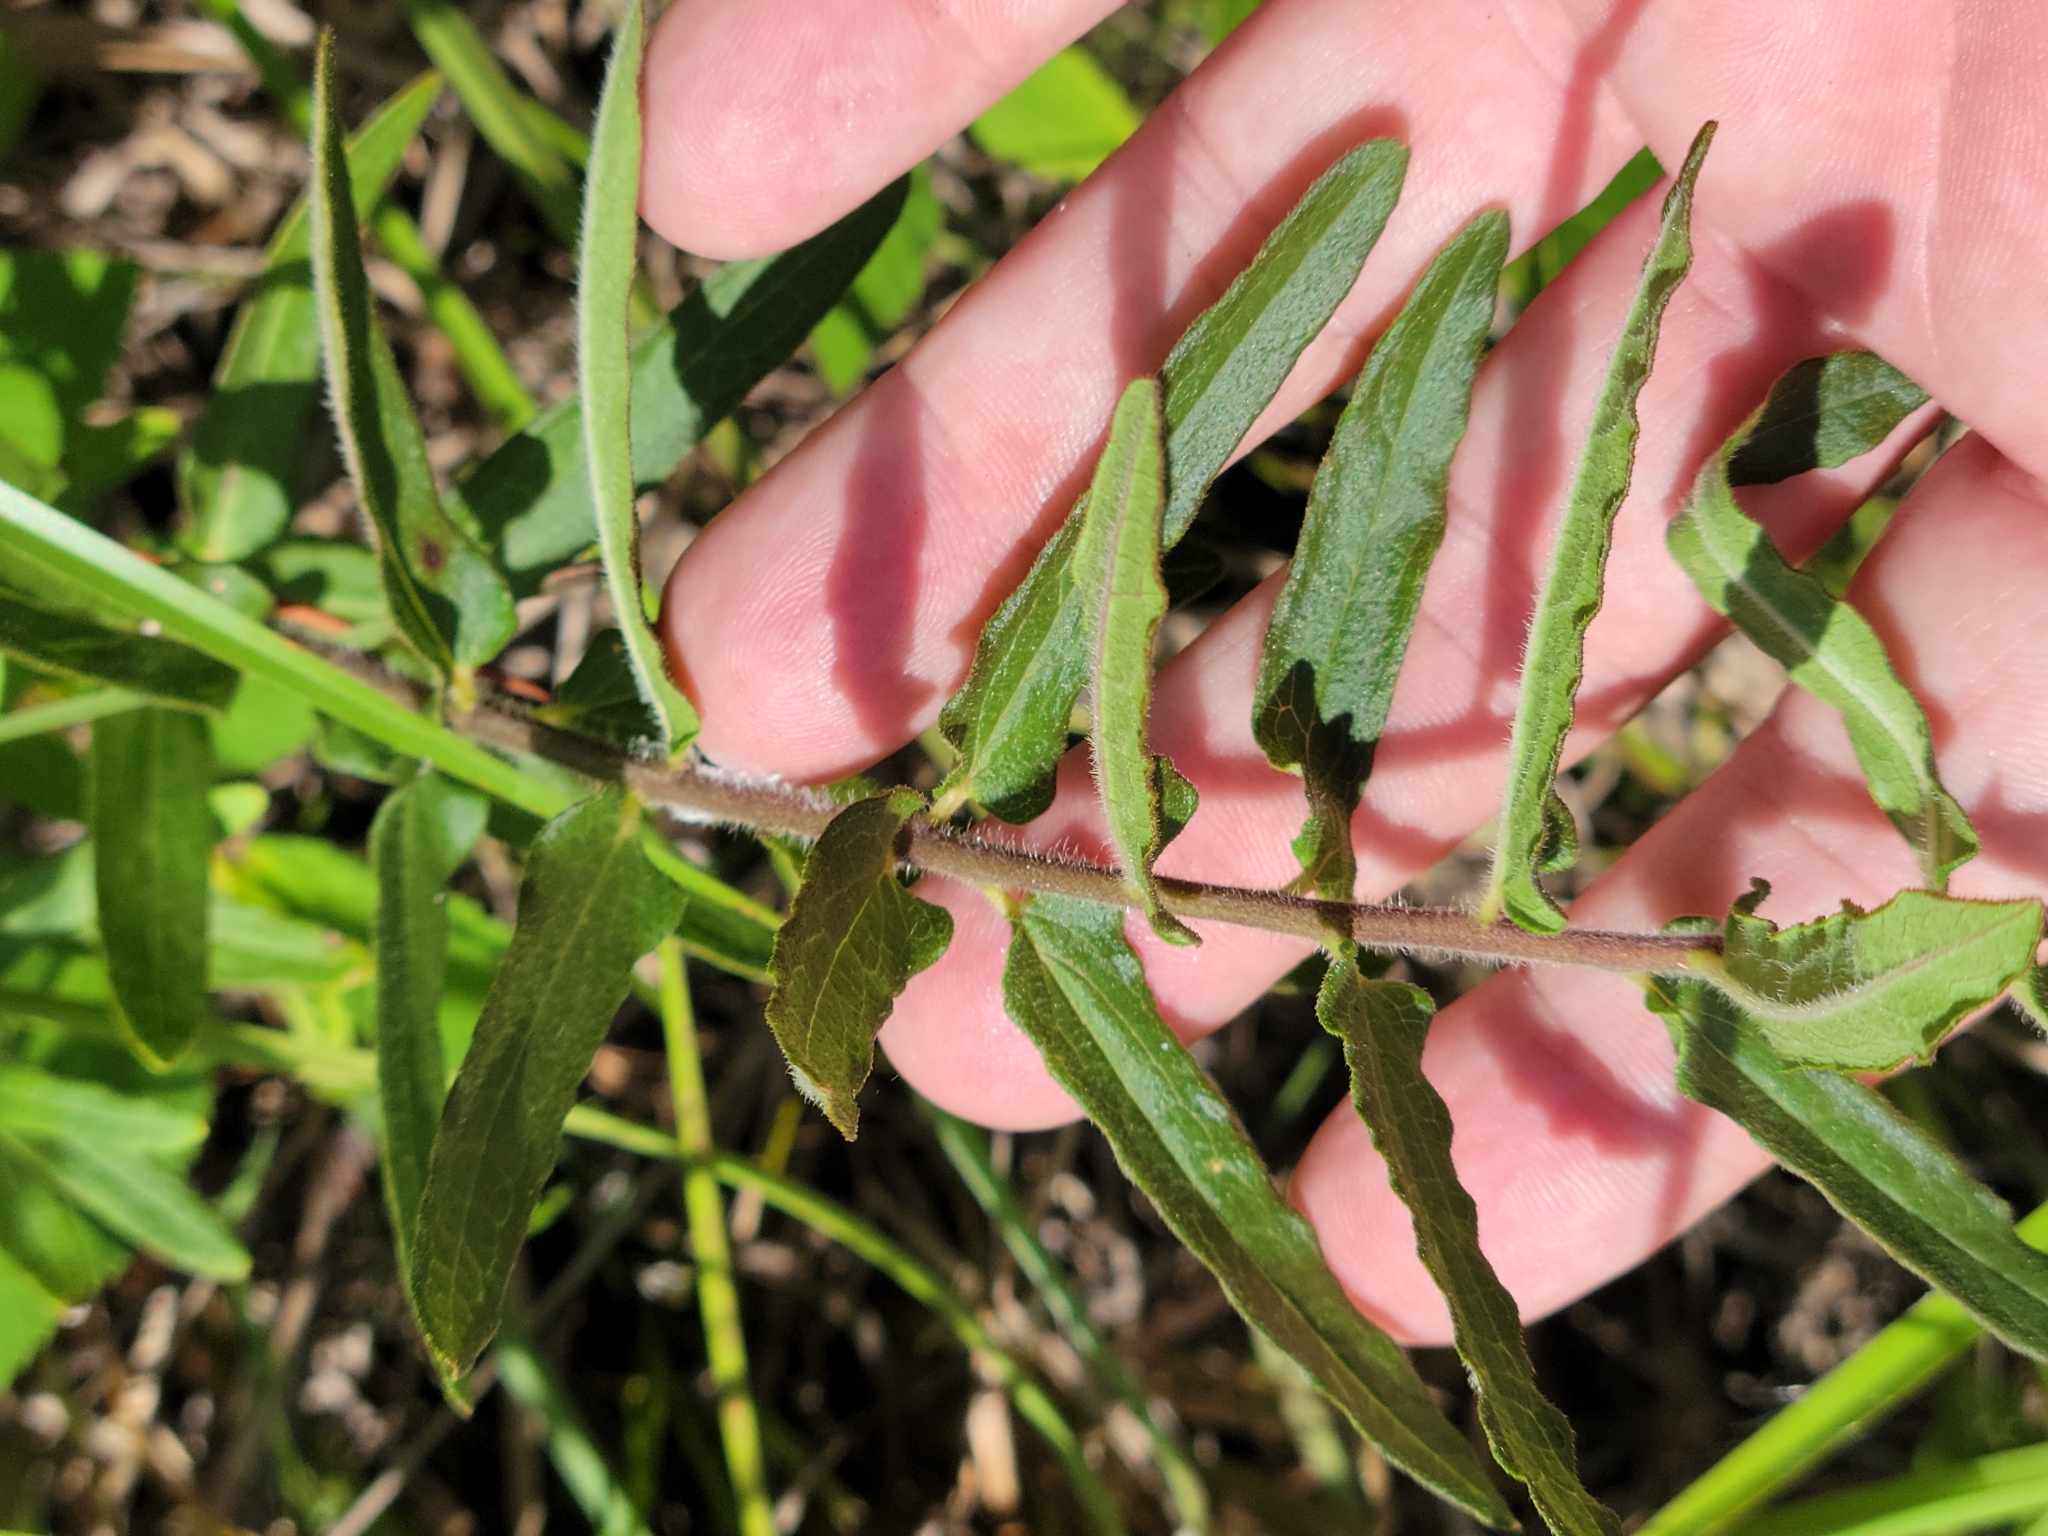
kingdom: Plantae
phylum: Tracheophyta
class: Magnoliopsida
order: Gentianales
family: Apocynaceae
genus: Asclepias
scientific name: Asclepias tuberosa
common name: Butterfly milkweed
